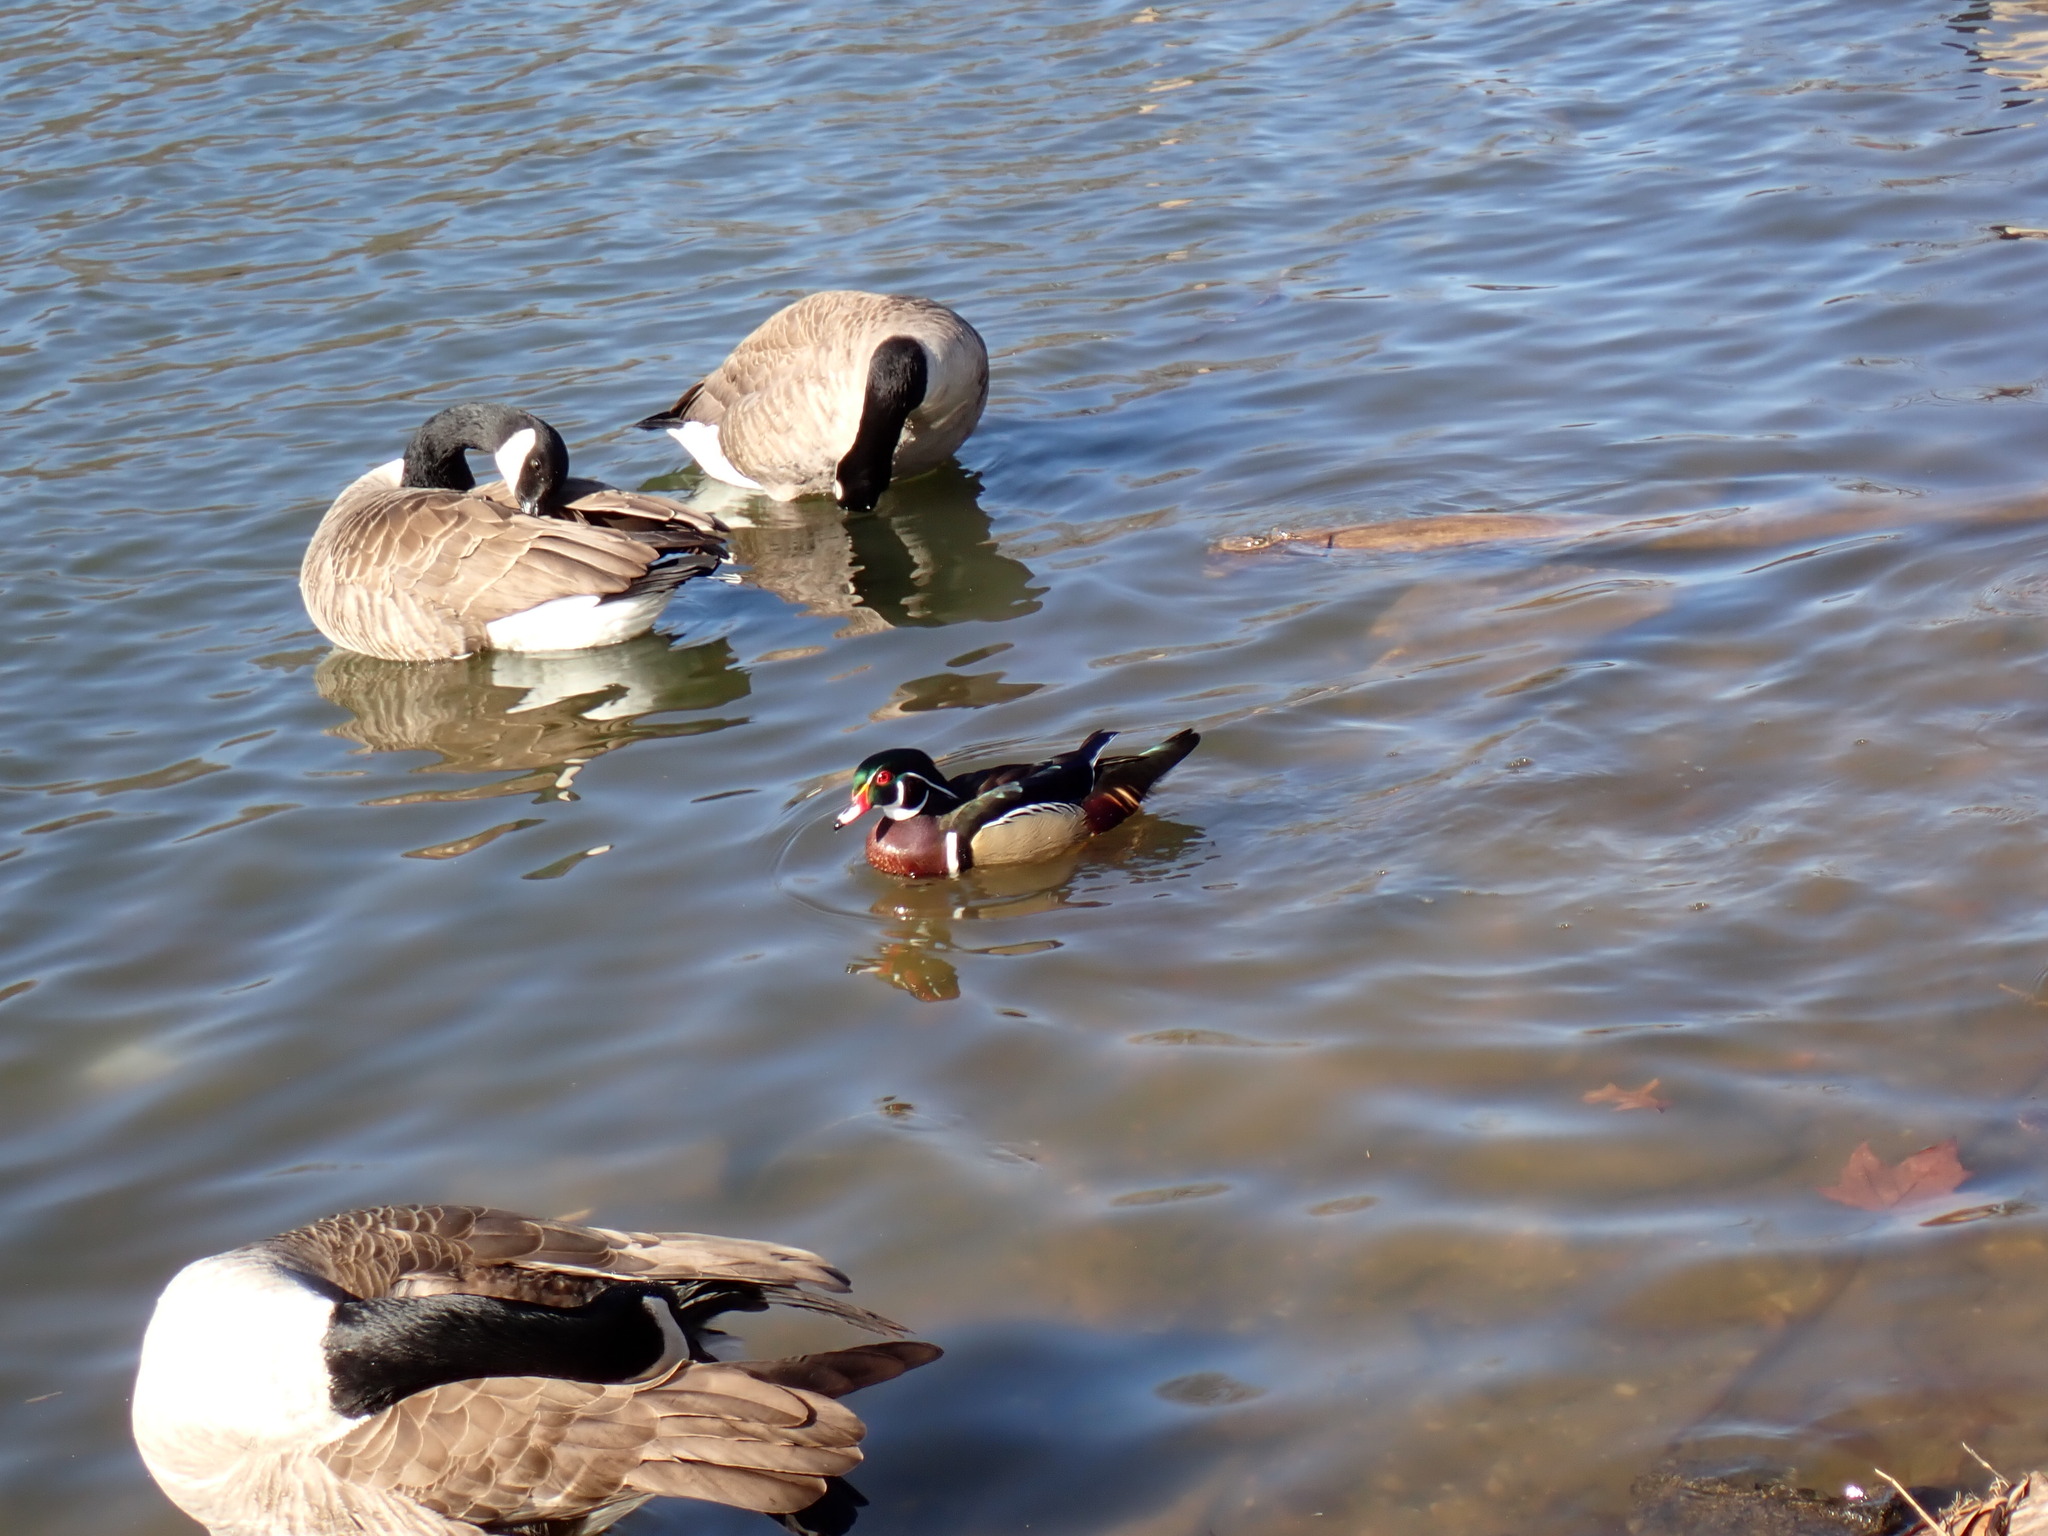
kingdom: Animalia
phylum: Chordata
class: Aves
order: Anseriformes
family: Anatidae
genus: Aix
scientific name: Aix sponsa
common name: Wood duck
